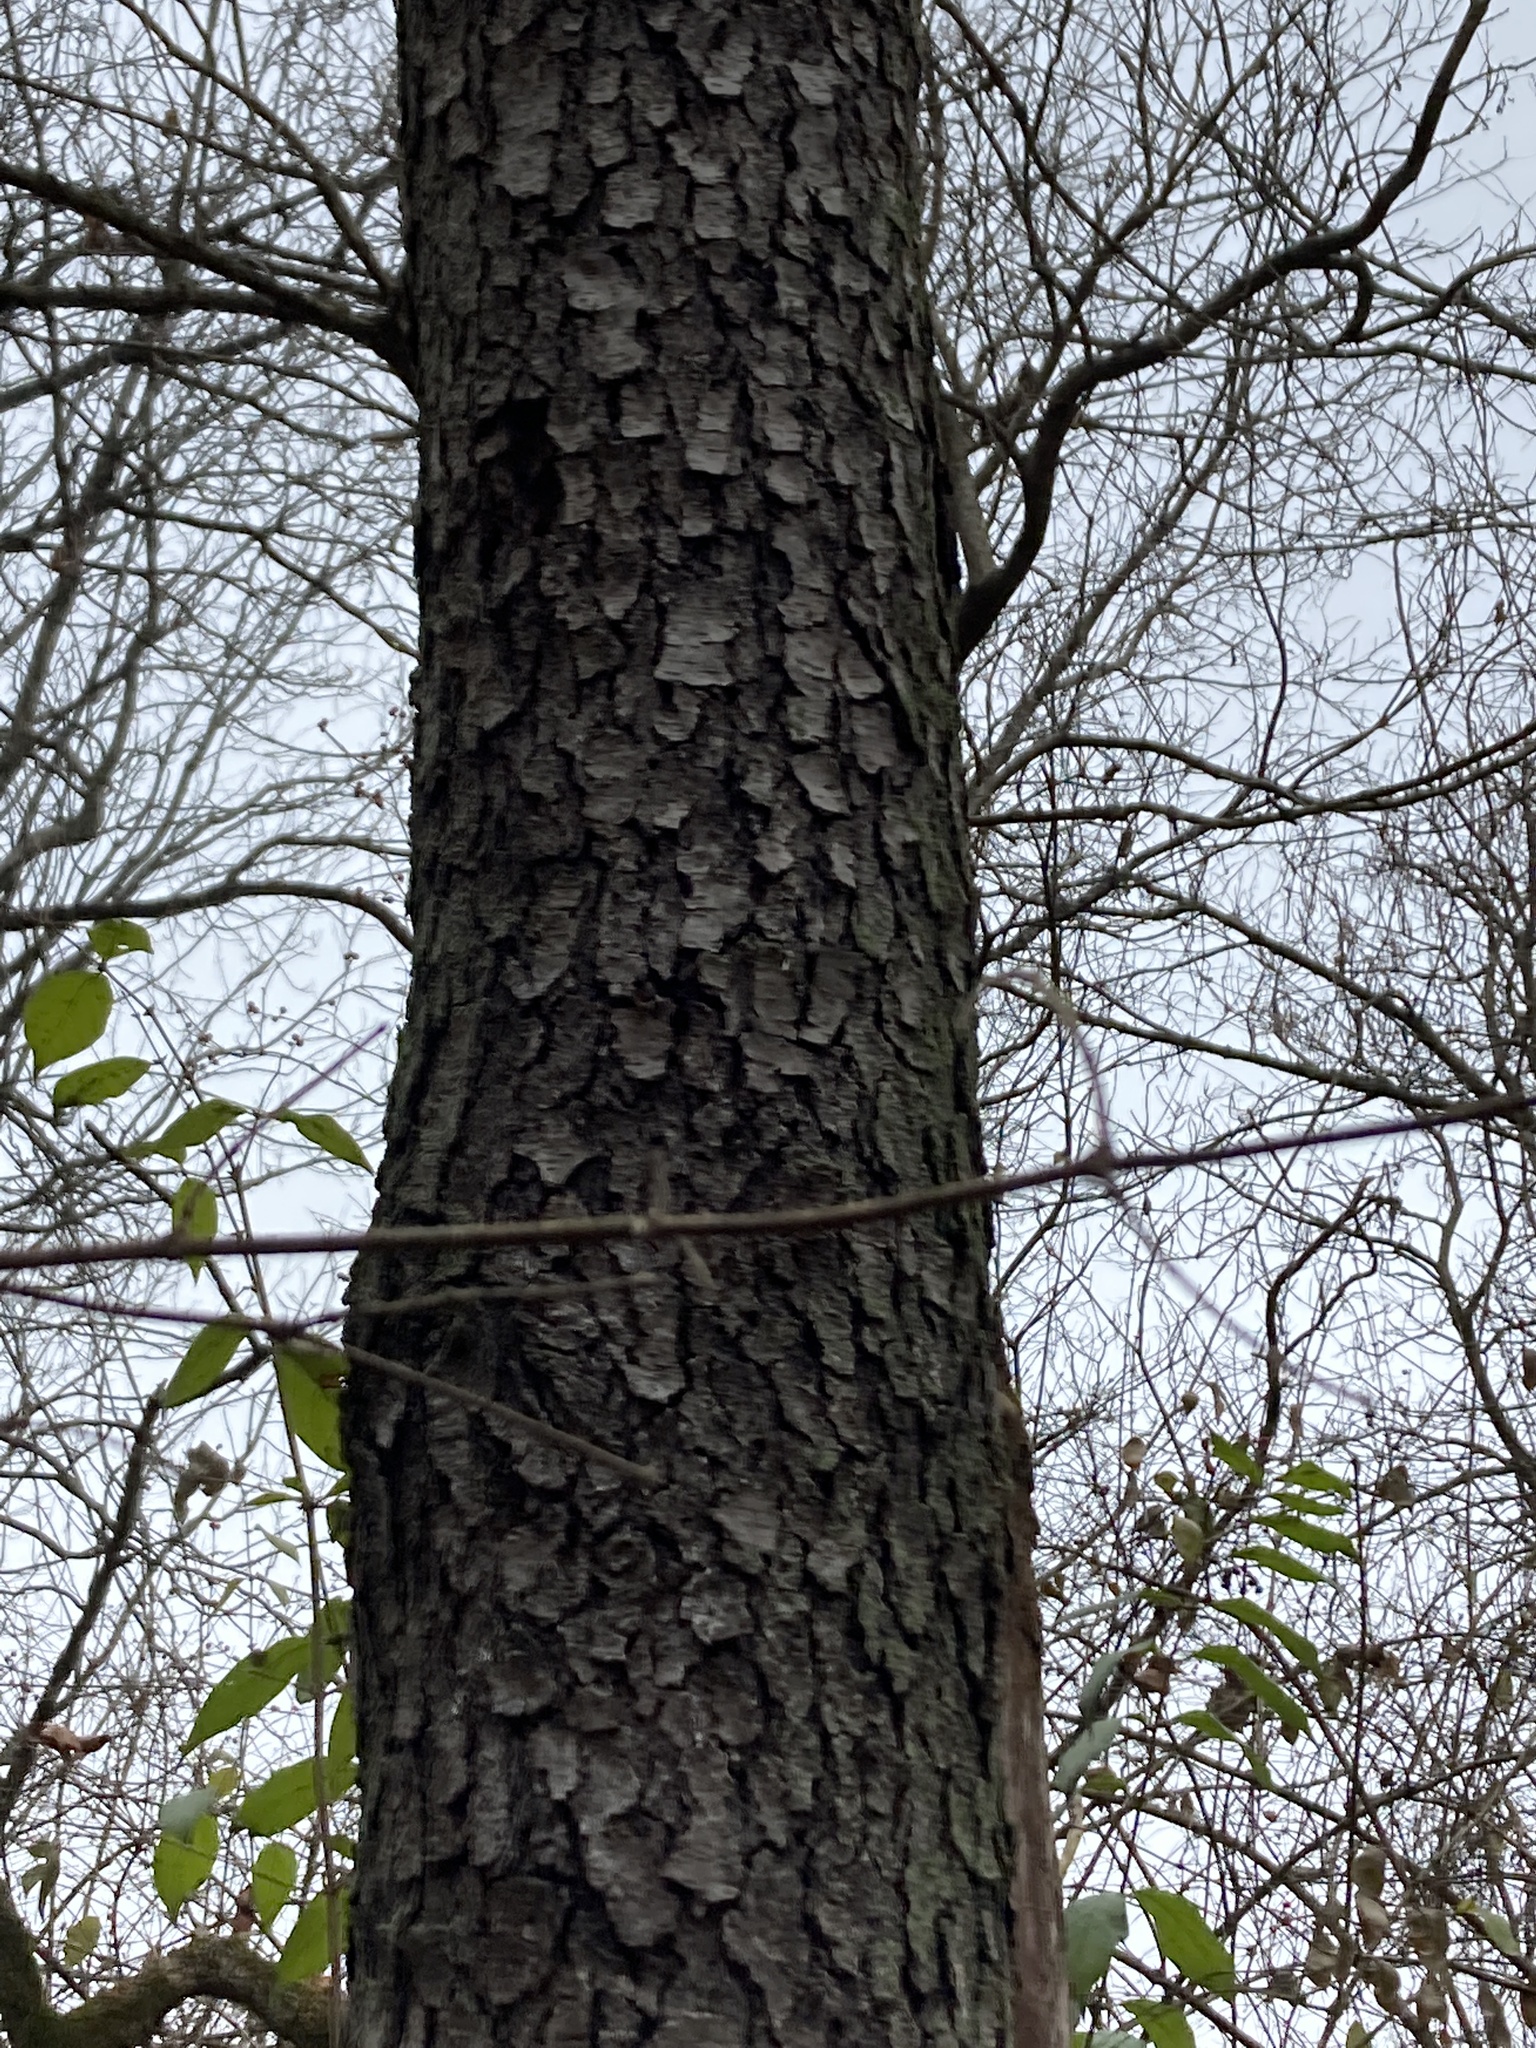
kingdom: Plantae
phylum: Tracheophyta
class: Magnoliopsida
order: Rosales
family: Rosaceae
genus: Prunus
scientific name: Prunus serotina
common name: Black cherry
